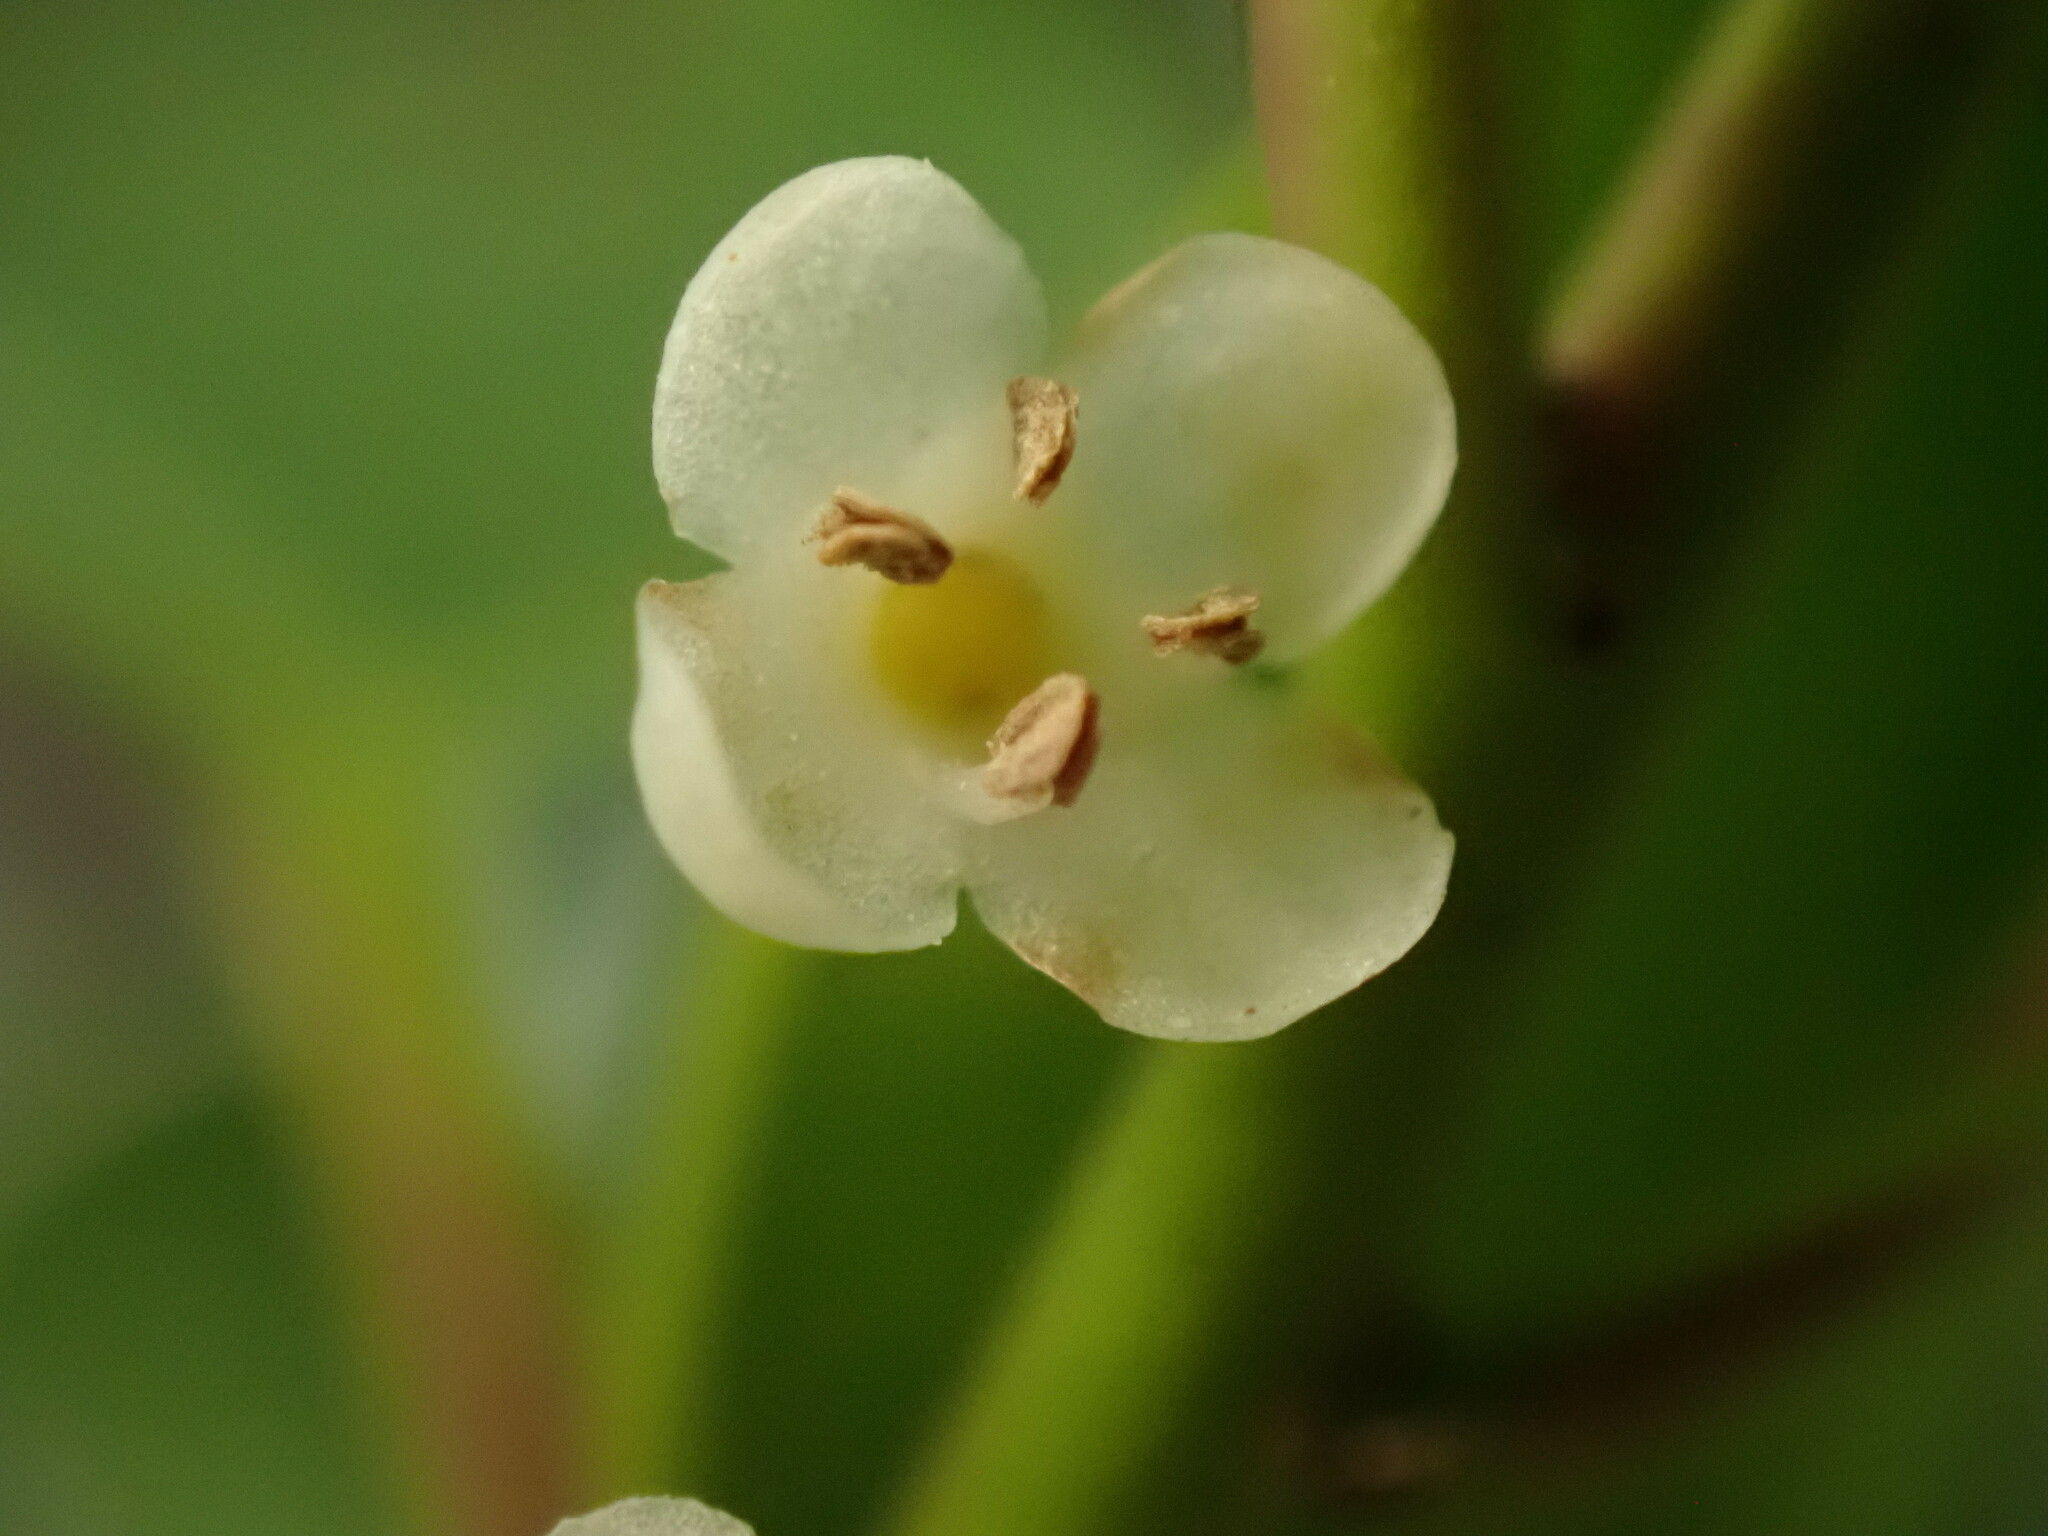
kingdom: Plantae
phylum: Tracheophyta
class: Magnoliopsida
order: Aquifoliales
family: Aquifoliaceae
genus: Ilex
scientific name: Ilex pedunculosa
